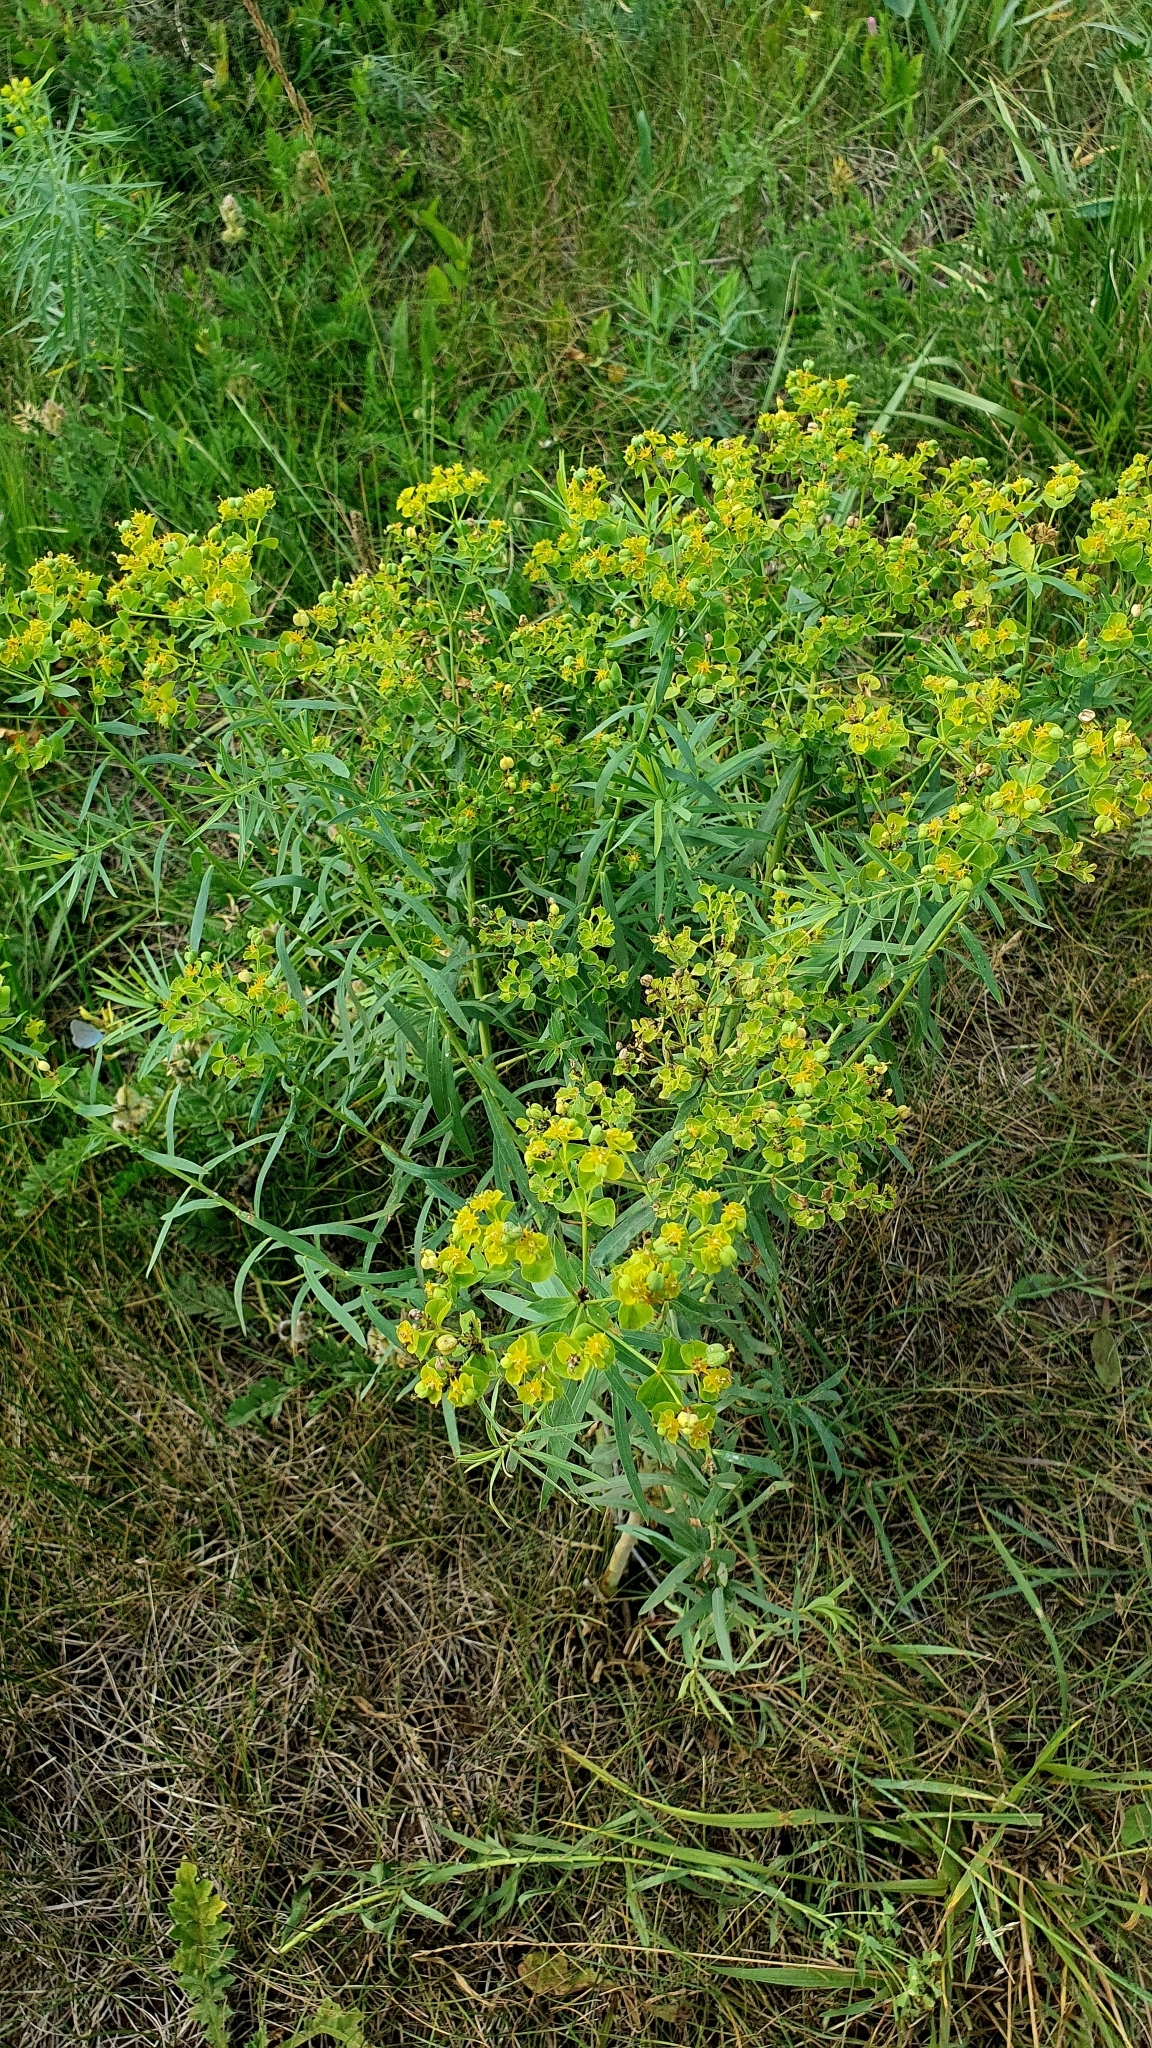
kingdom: Plantae
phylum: Tracheophyta
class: Magnoliopsida
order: Malpighiales
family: Euphorbiaceae
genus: Euphorbia
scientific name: Euphorbia virgata
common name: Leafy spurge
